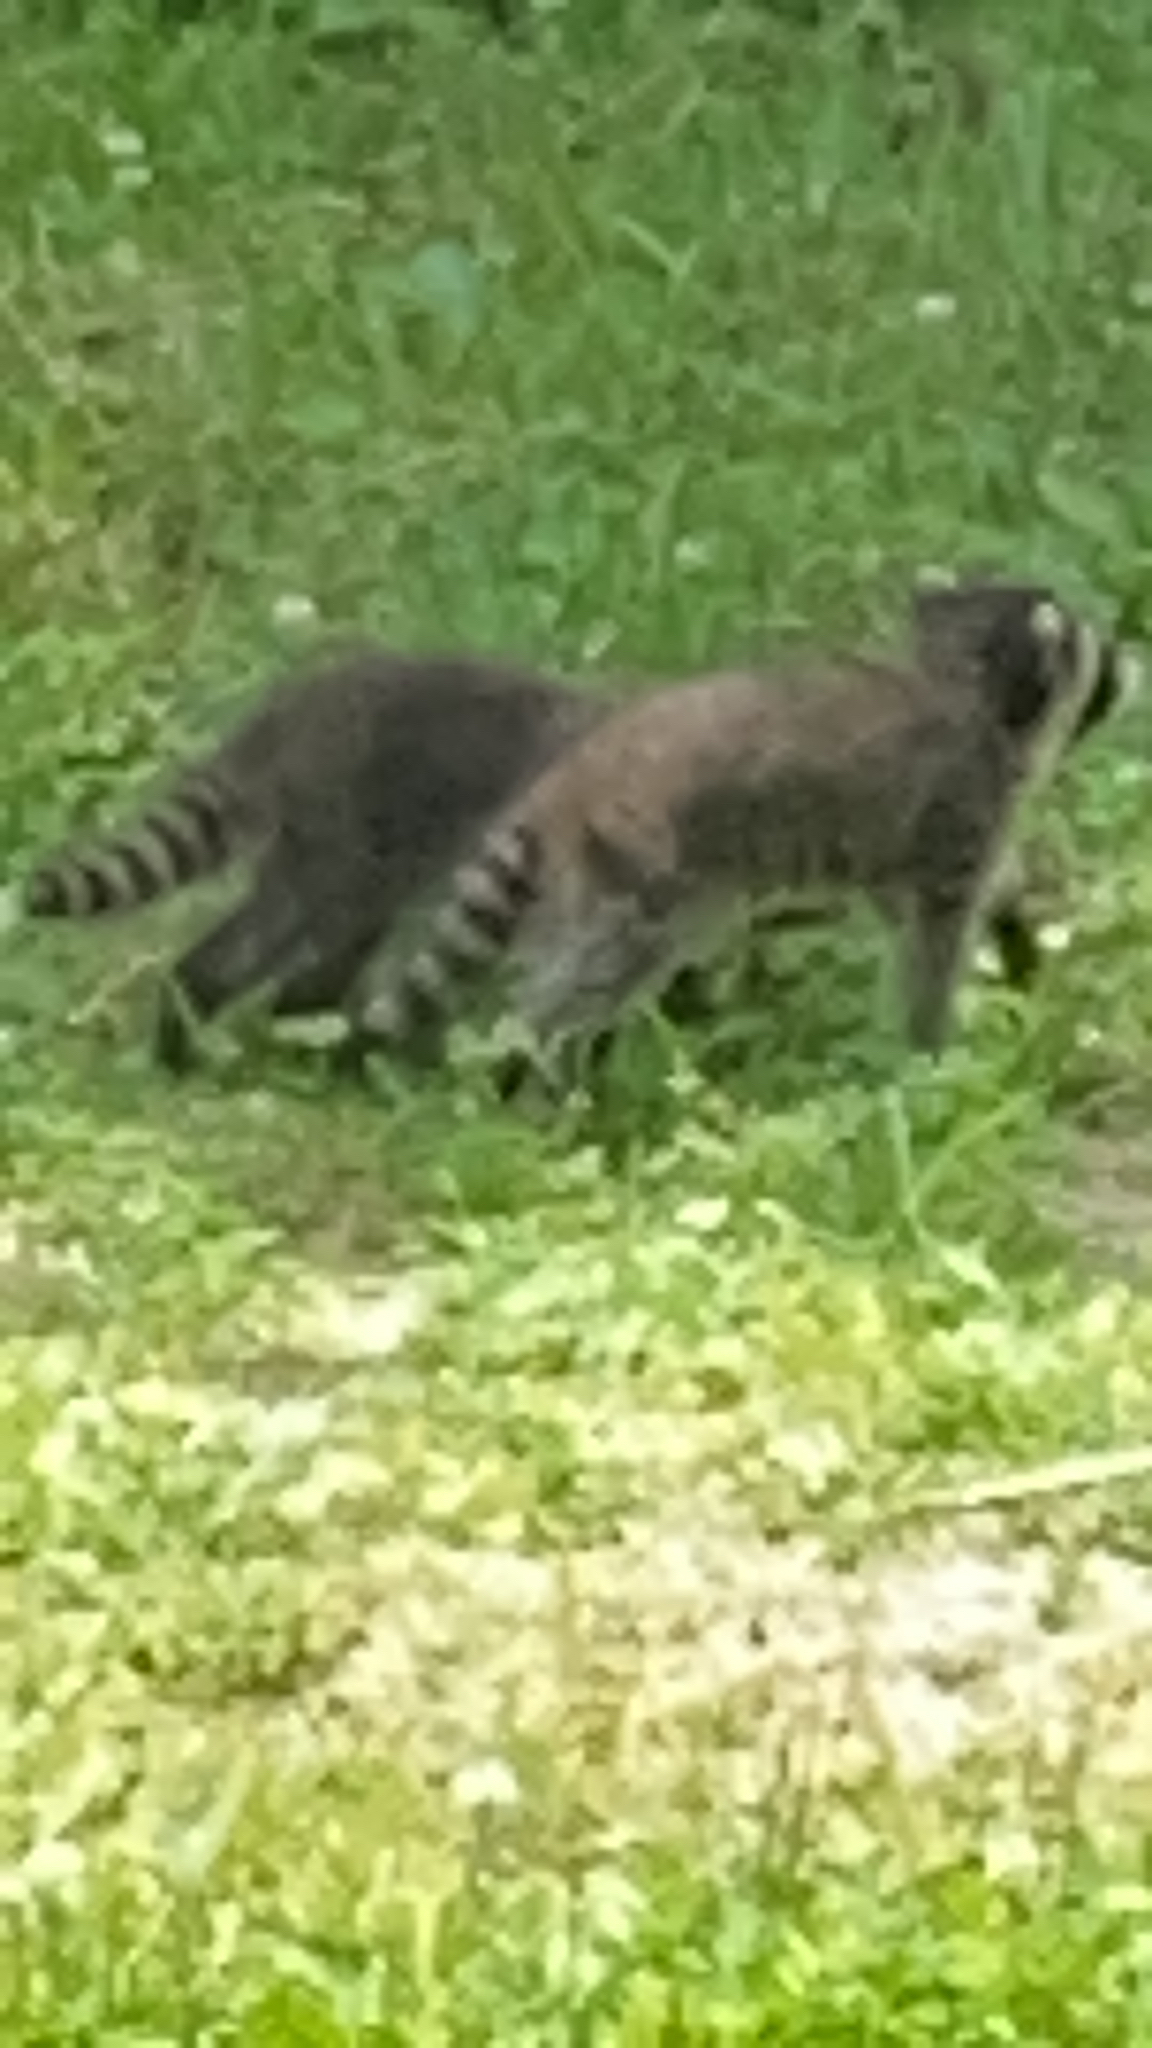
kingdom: Animalia
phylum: Chordata
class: Mammalia
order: Carnivora
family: Procyonidae
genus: Procyon
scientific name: Procyon lotor
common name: Raccoon
